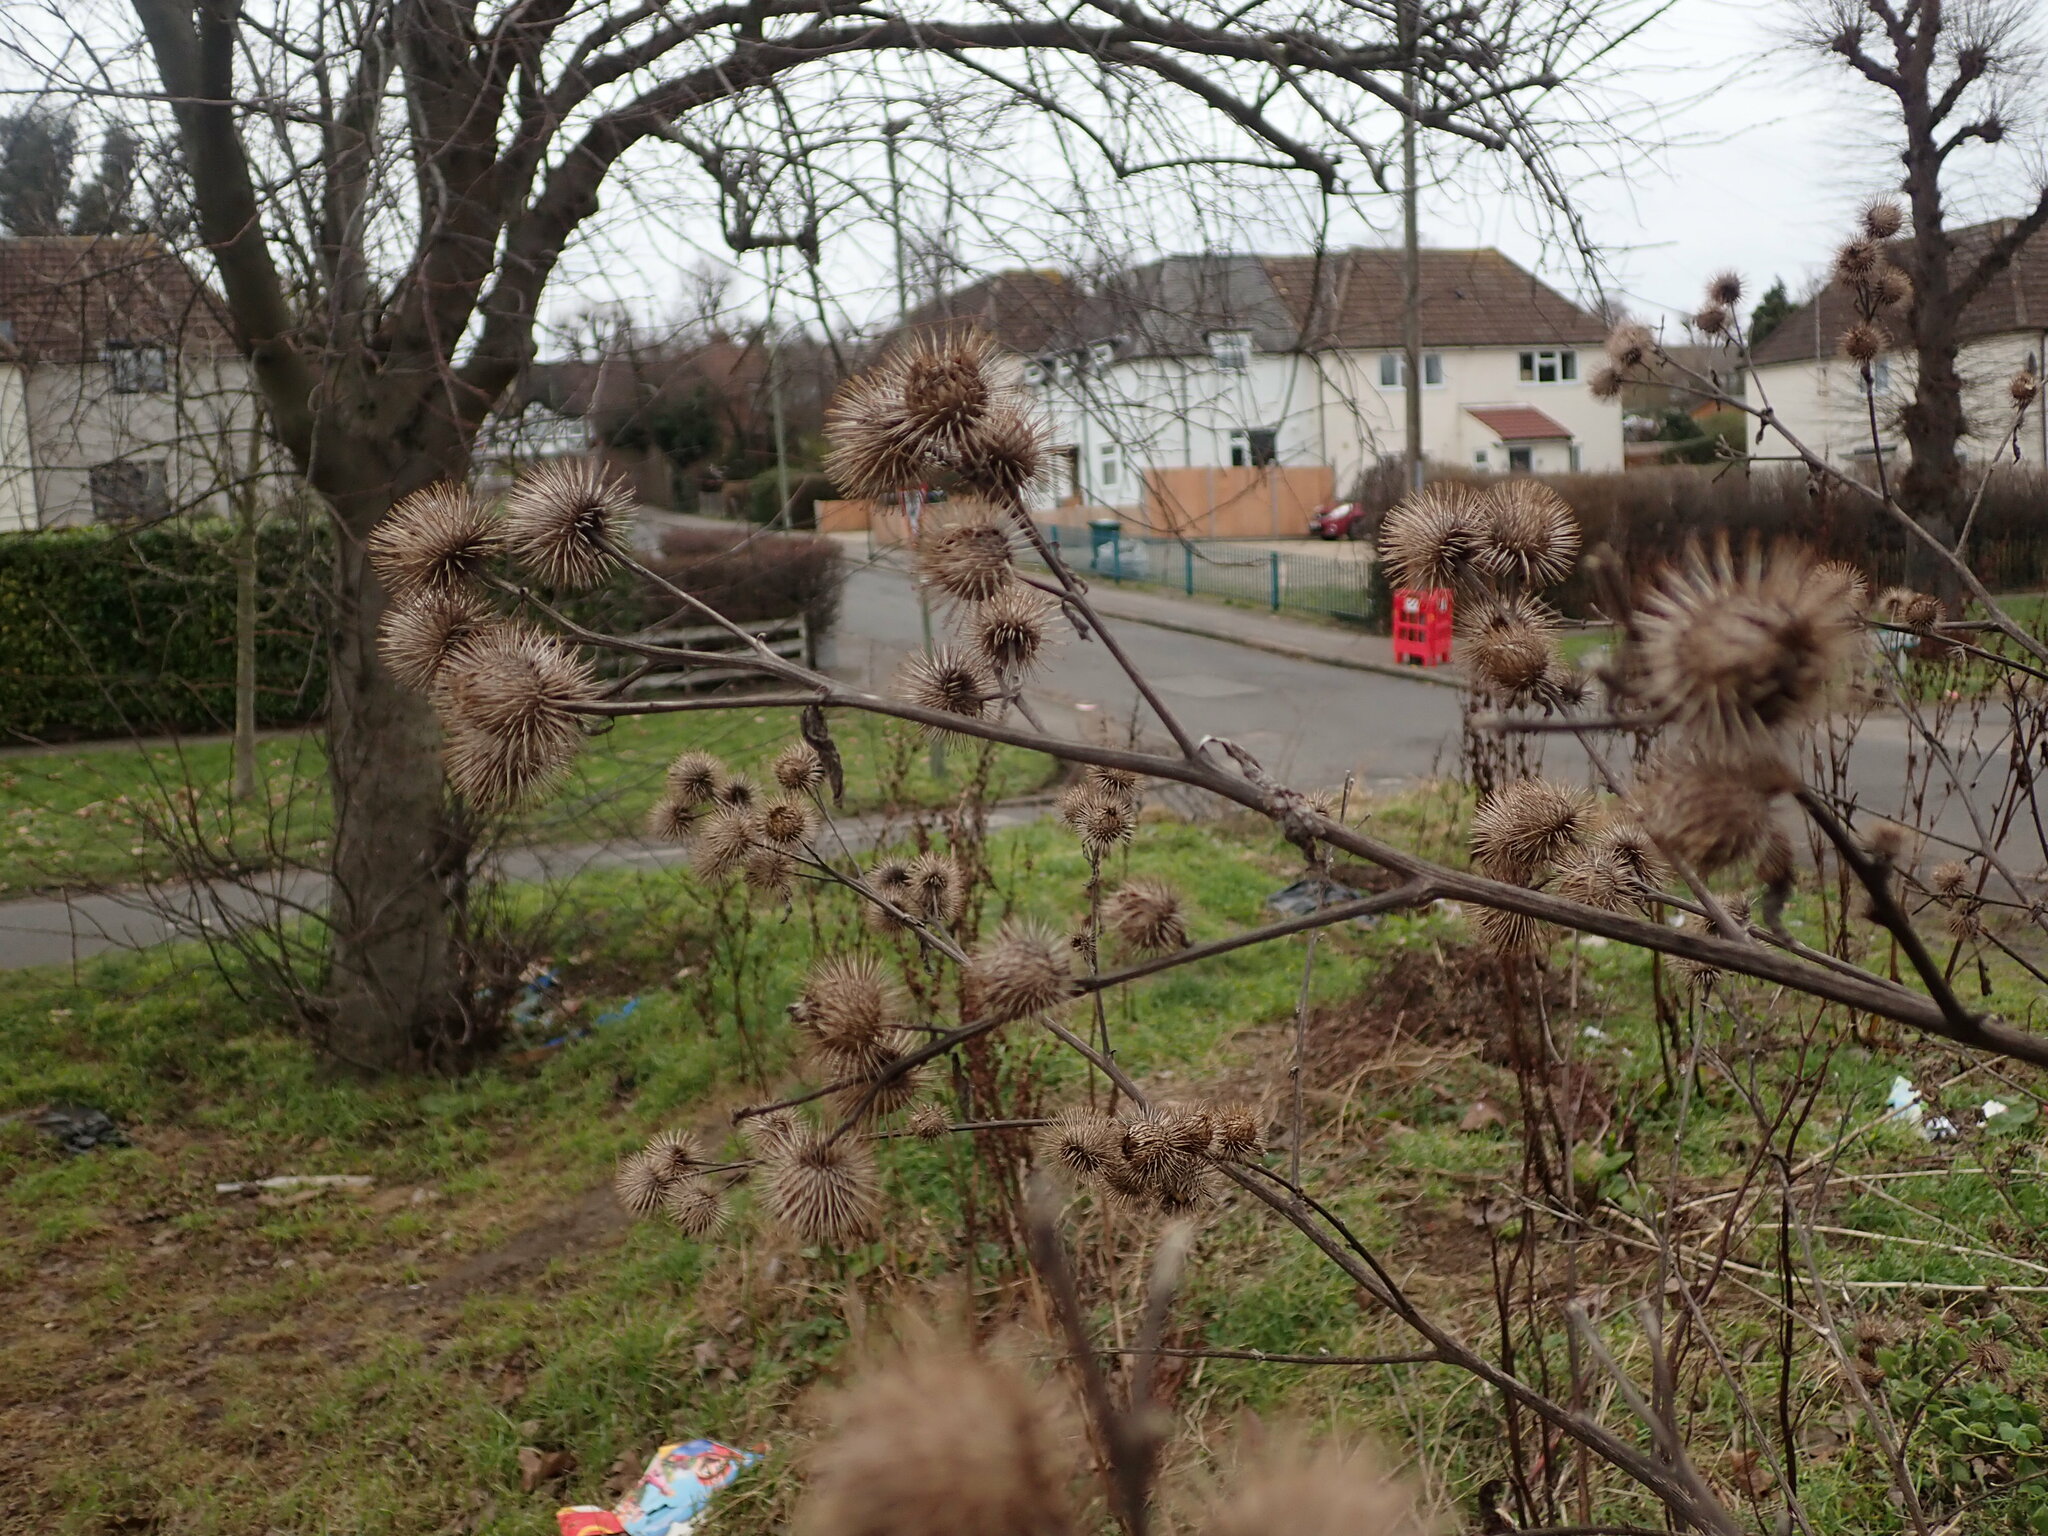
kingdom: Plantae
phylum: Tracheophyta
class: Magnoliopsida
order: Asterales
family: Asteraceae
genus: Arctium
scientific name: Arctium minus
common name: Lesser burdock
